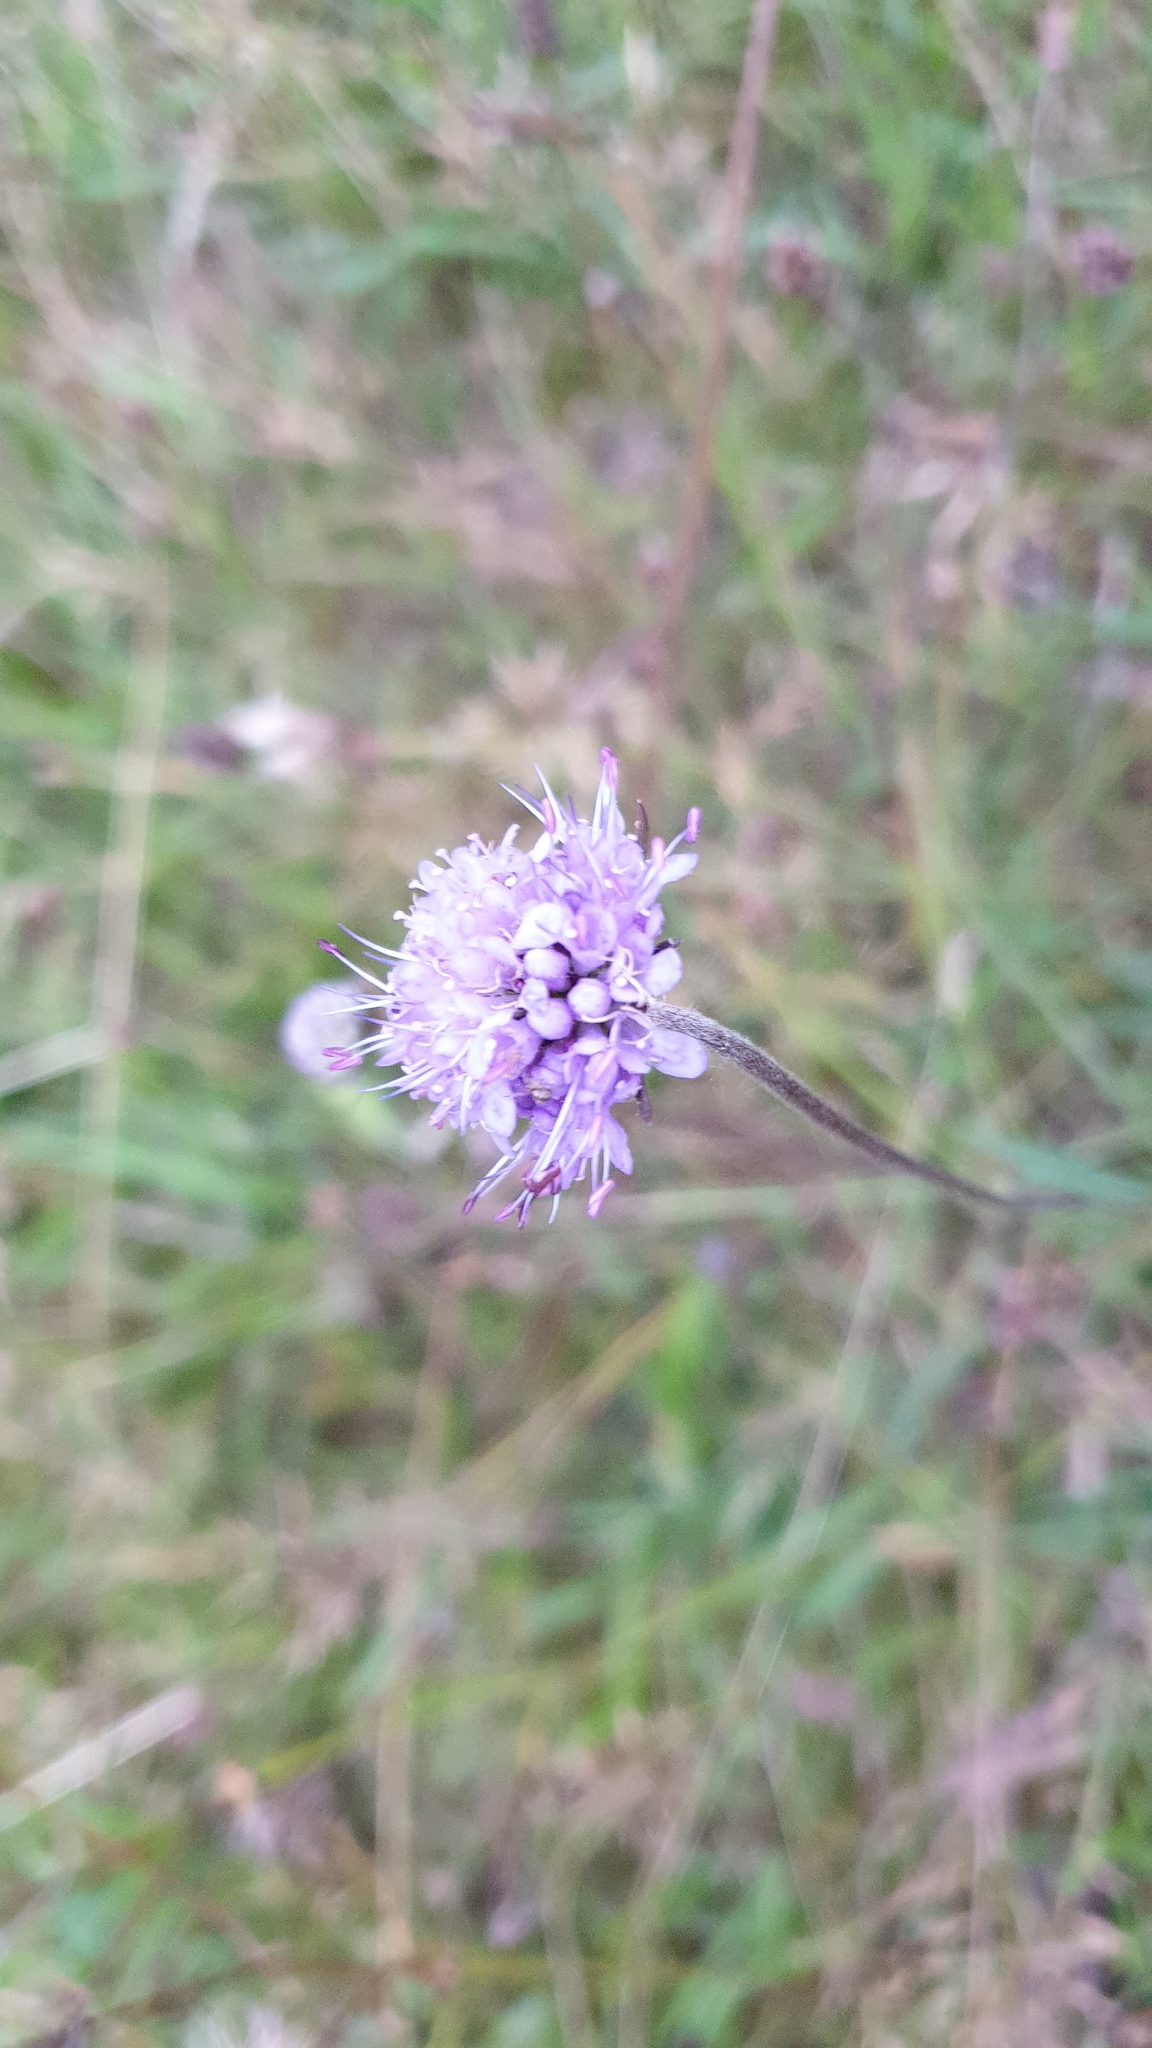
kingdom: Plantae
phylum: Tracheophyta
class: Magnoliopsida
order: Dipsacales
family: Caprifoliaceae
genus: Succisa
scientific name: Succisa pratensis
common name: Devil's-bit
